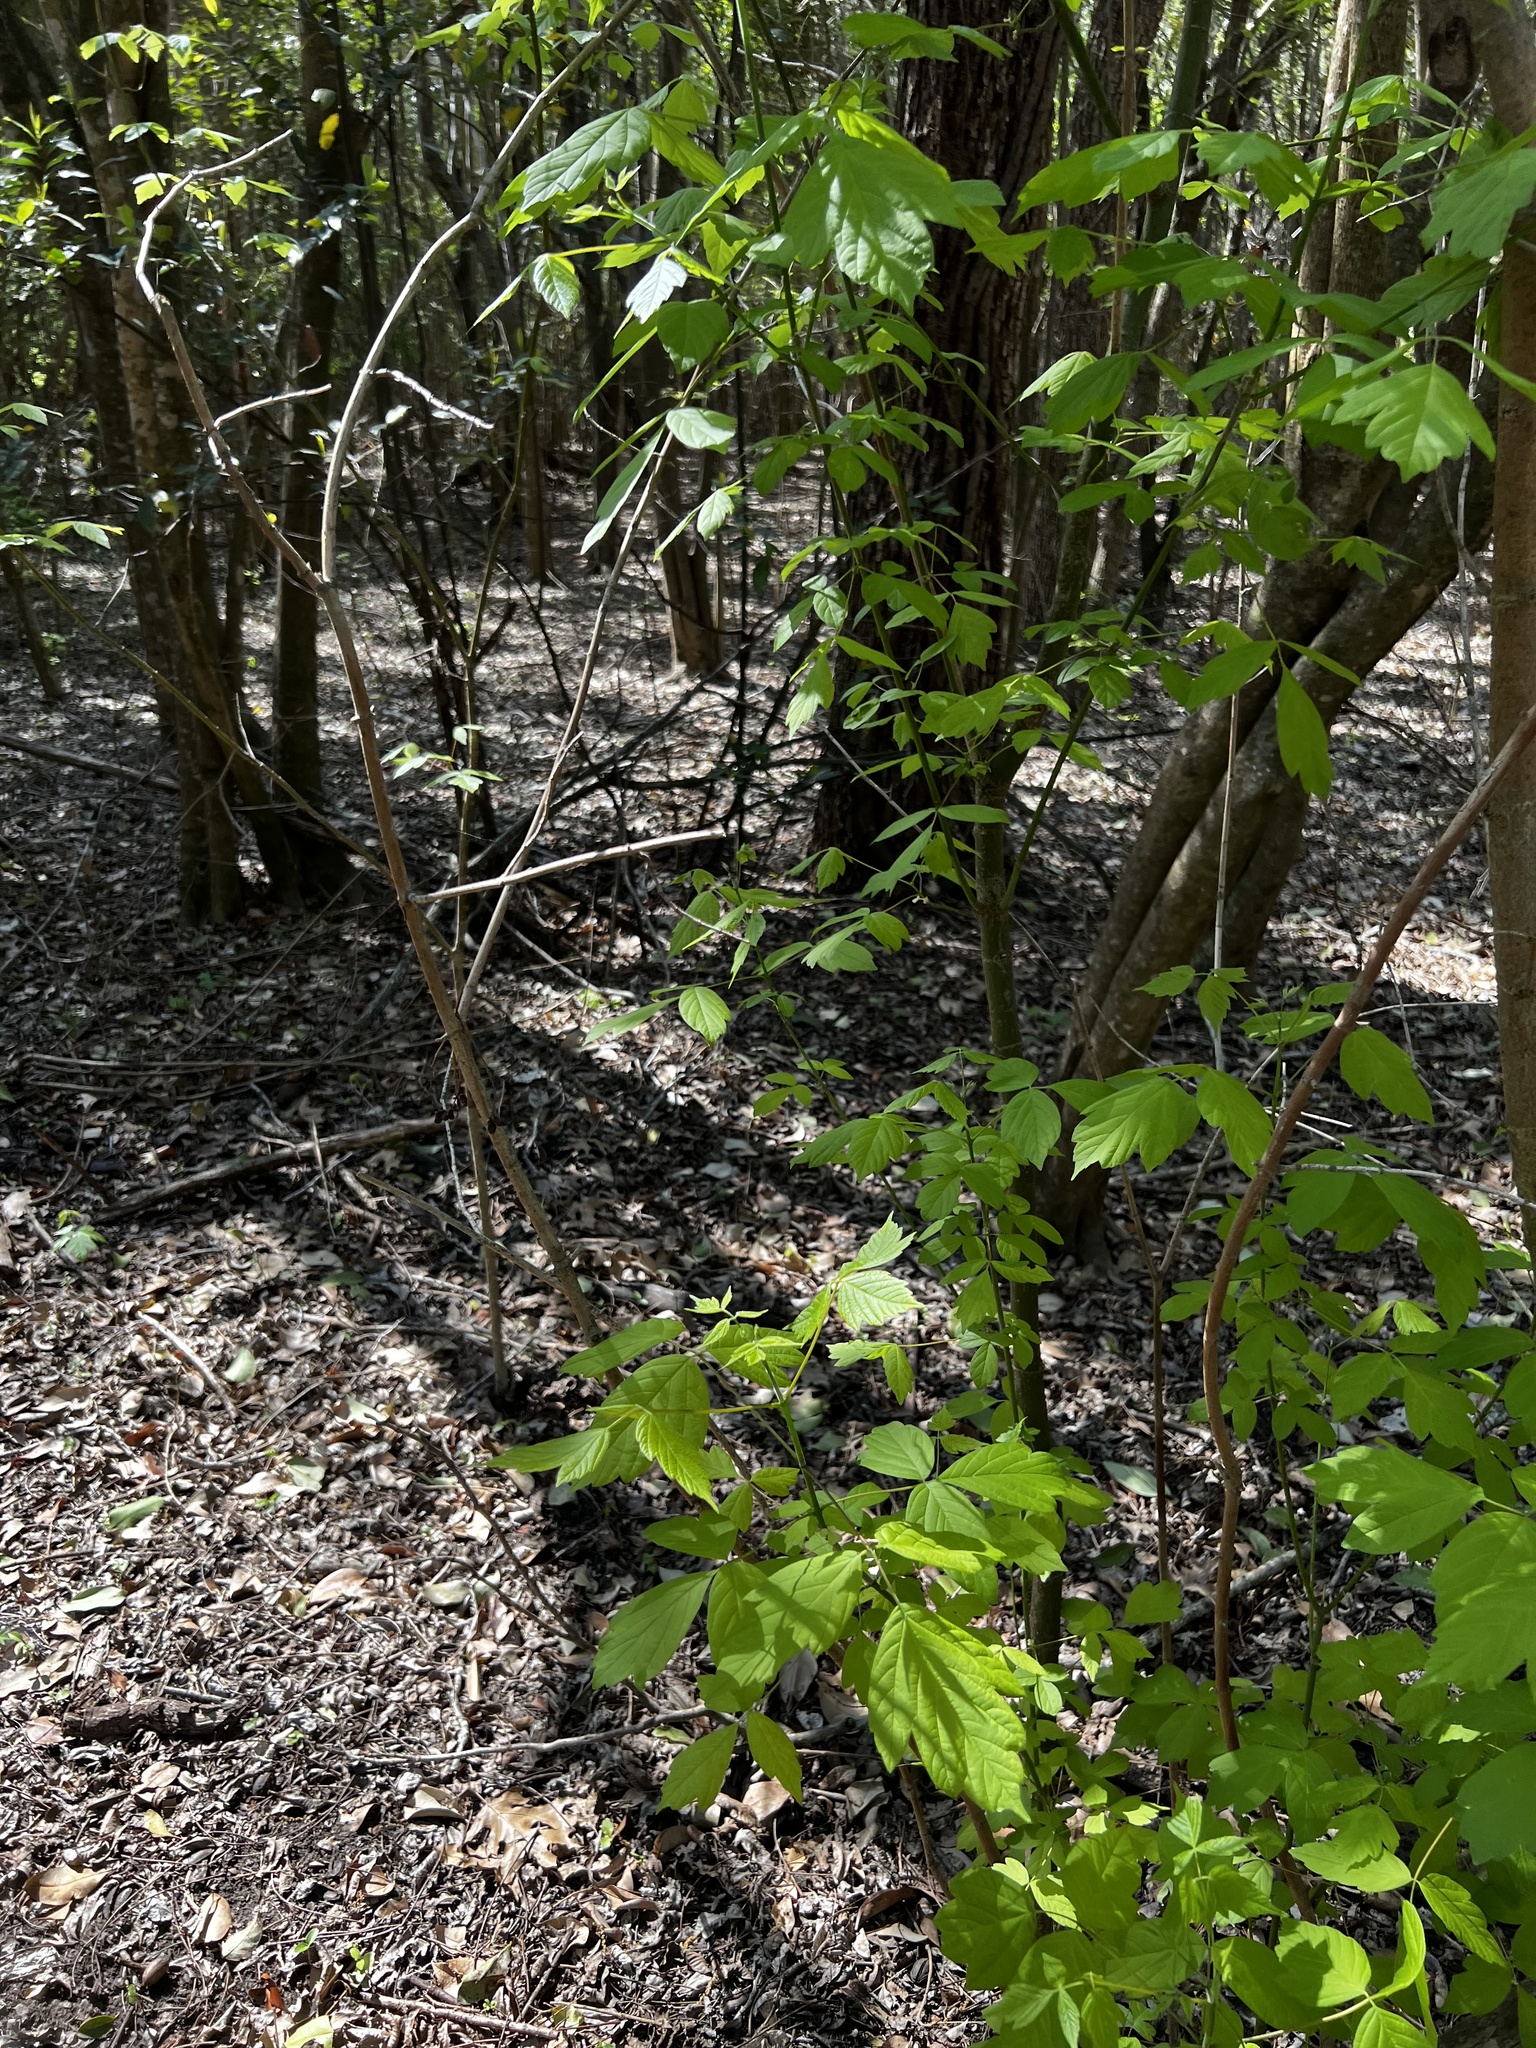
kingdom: Plantae
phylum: Tracheophyta
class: Magnoliopsida
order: Dipsacales
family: Viburnaceae
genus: Viburnum
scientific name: Viburnum rufidulum
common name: Blue haw
